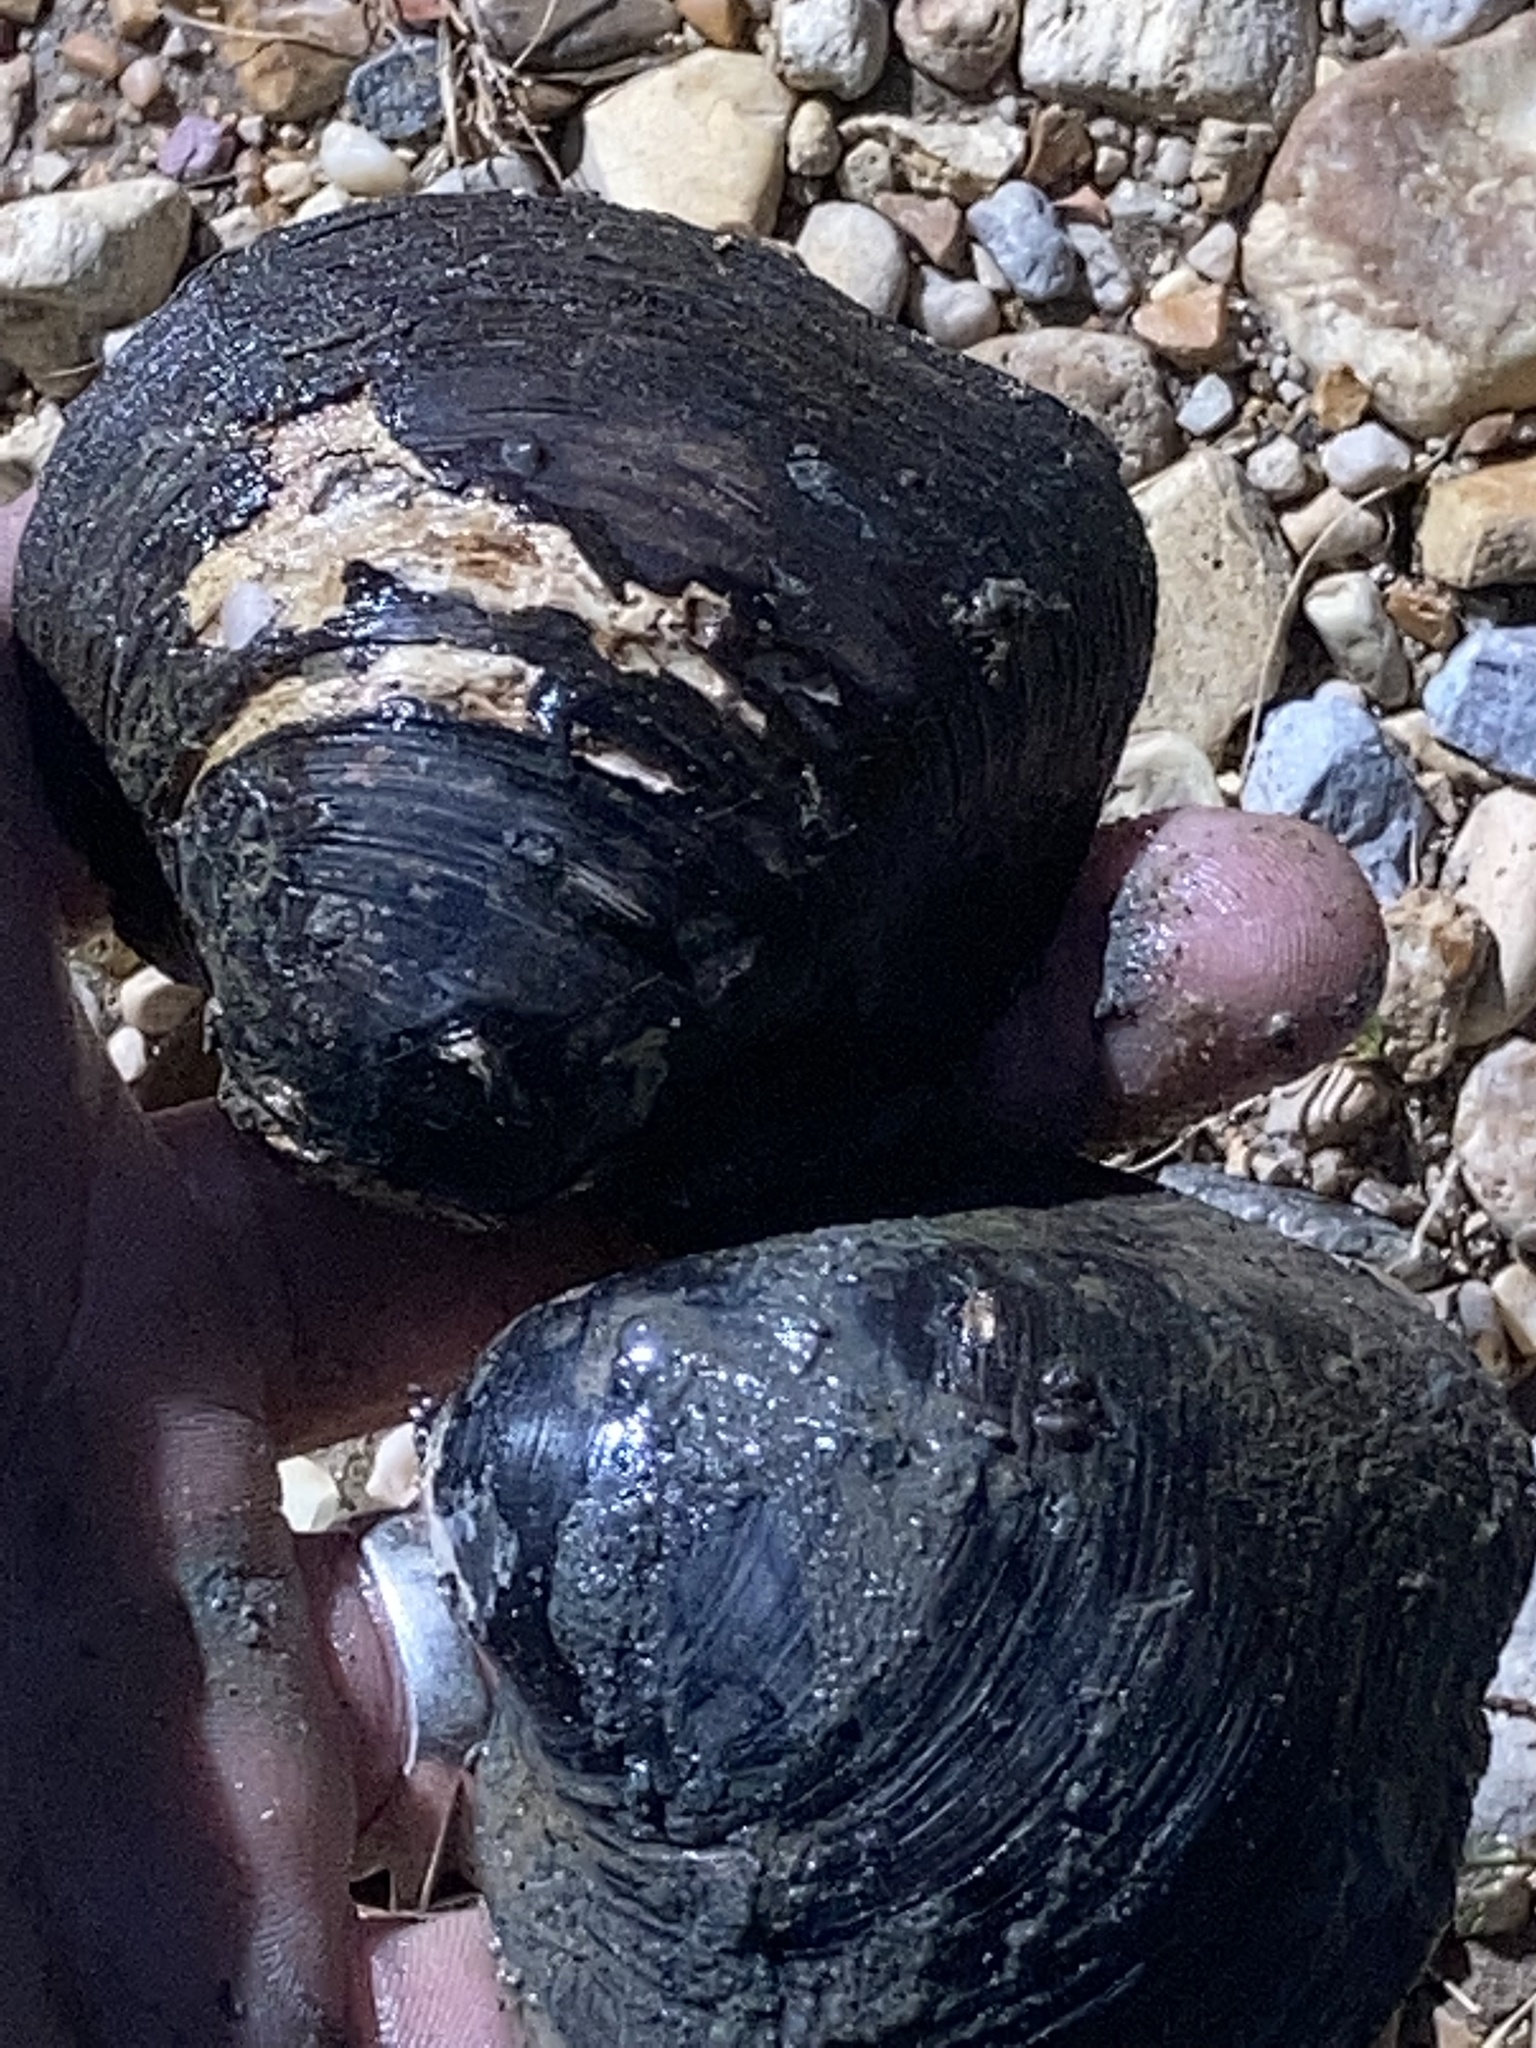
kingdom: Animalia
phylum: Mollusca
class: Bivalvia
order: Unionida
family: Unionidae
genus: Fusconaia
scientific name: Fusconaia flava
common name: Wabash pigtoe
